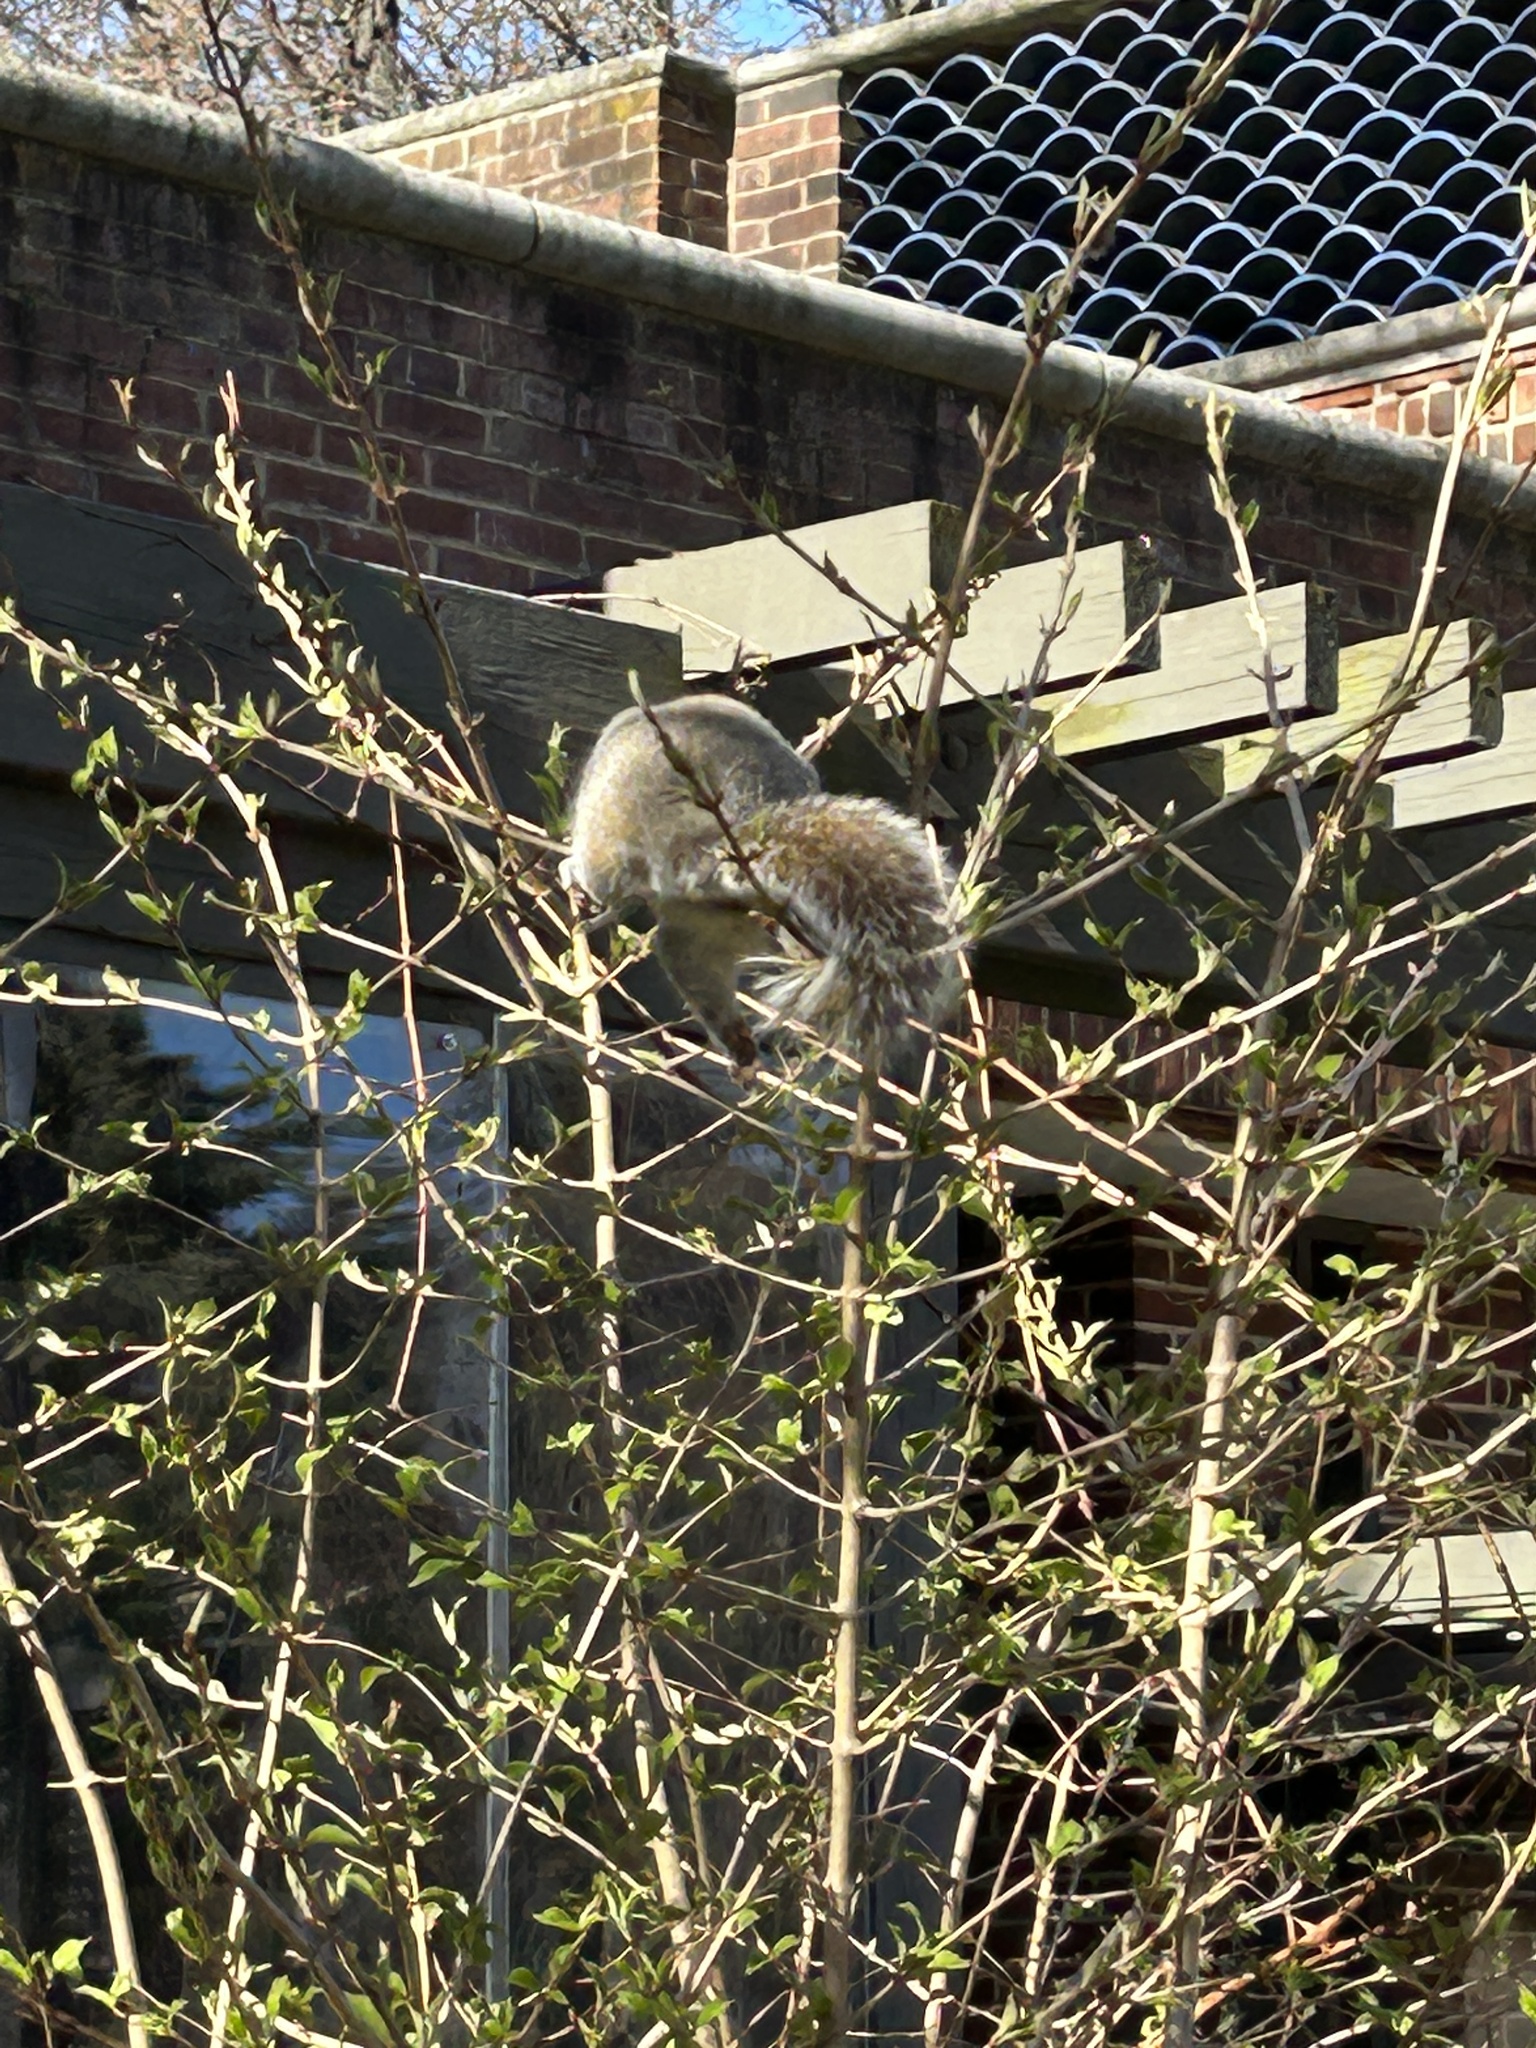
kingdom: Animalia
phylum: Chordata
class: Mammalia
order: Rodentia
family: Sciuridae
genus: Sciurus
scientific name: Sciurus carolinensis
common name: Eastern gray squirrel
